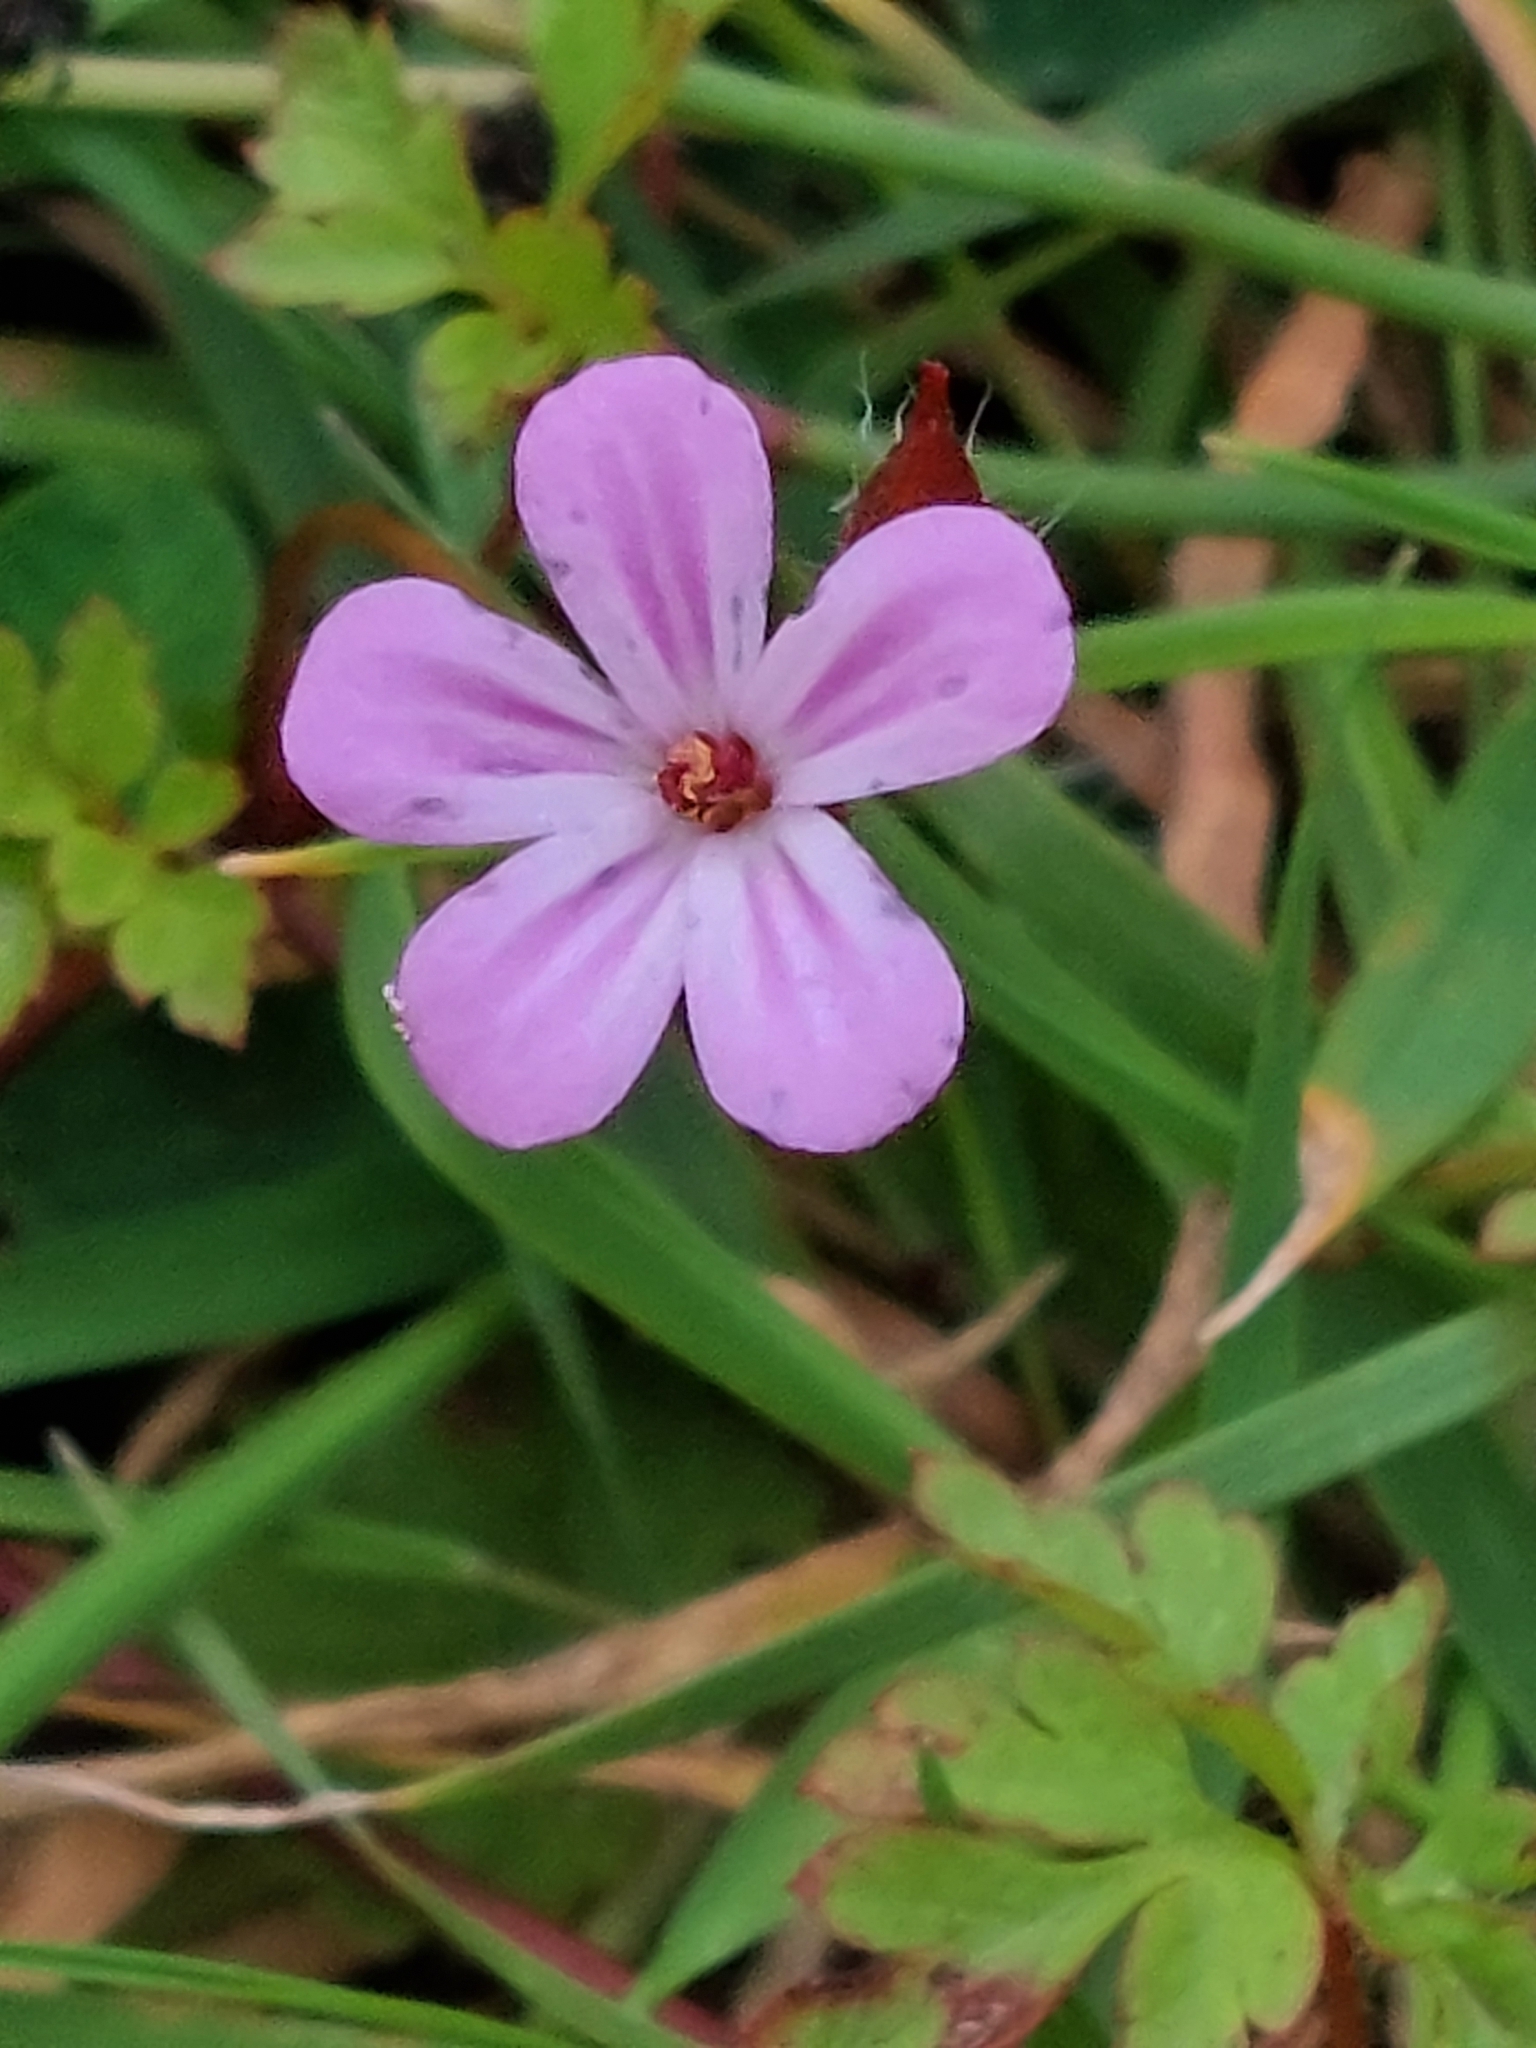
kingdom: Plantae
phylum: Tracheophyta
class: Magnoliopsida
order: Geraniales
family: Geraniaceae
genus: Geranium
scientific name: Geranium robertianum
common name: Herb-robert
